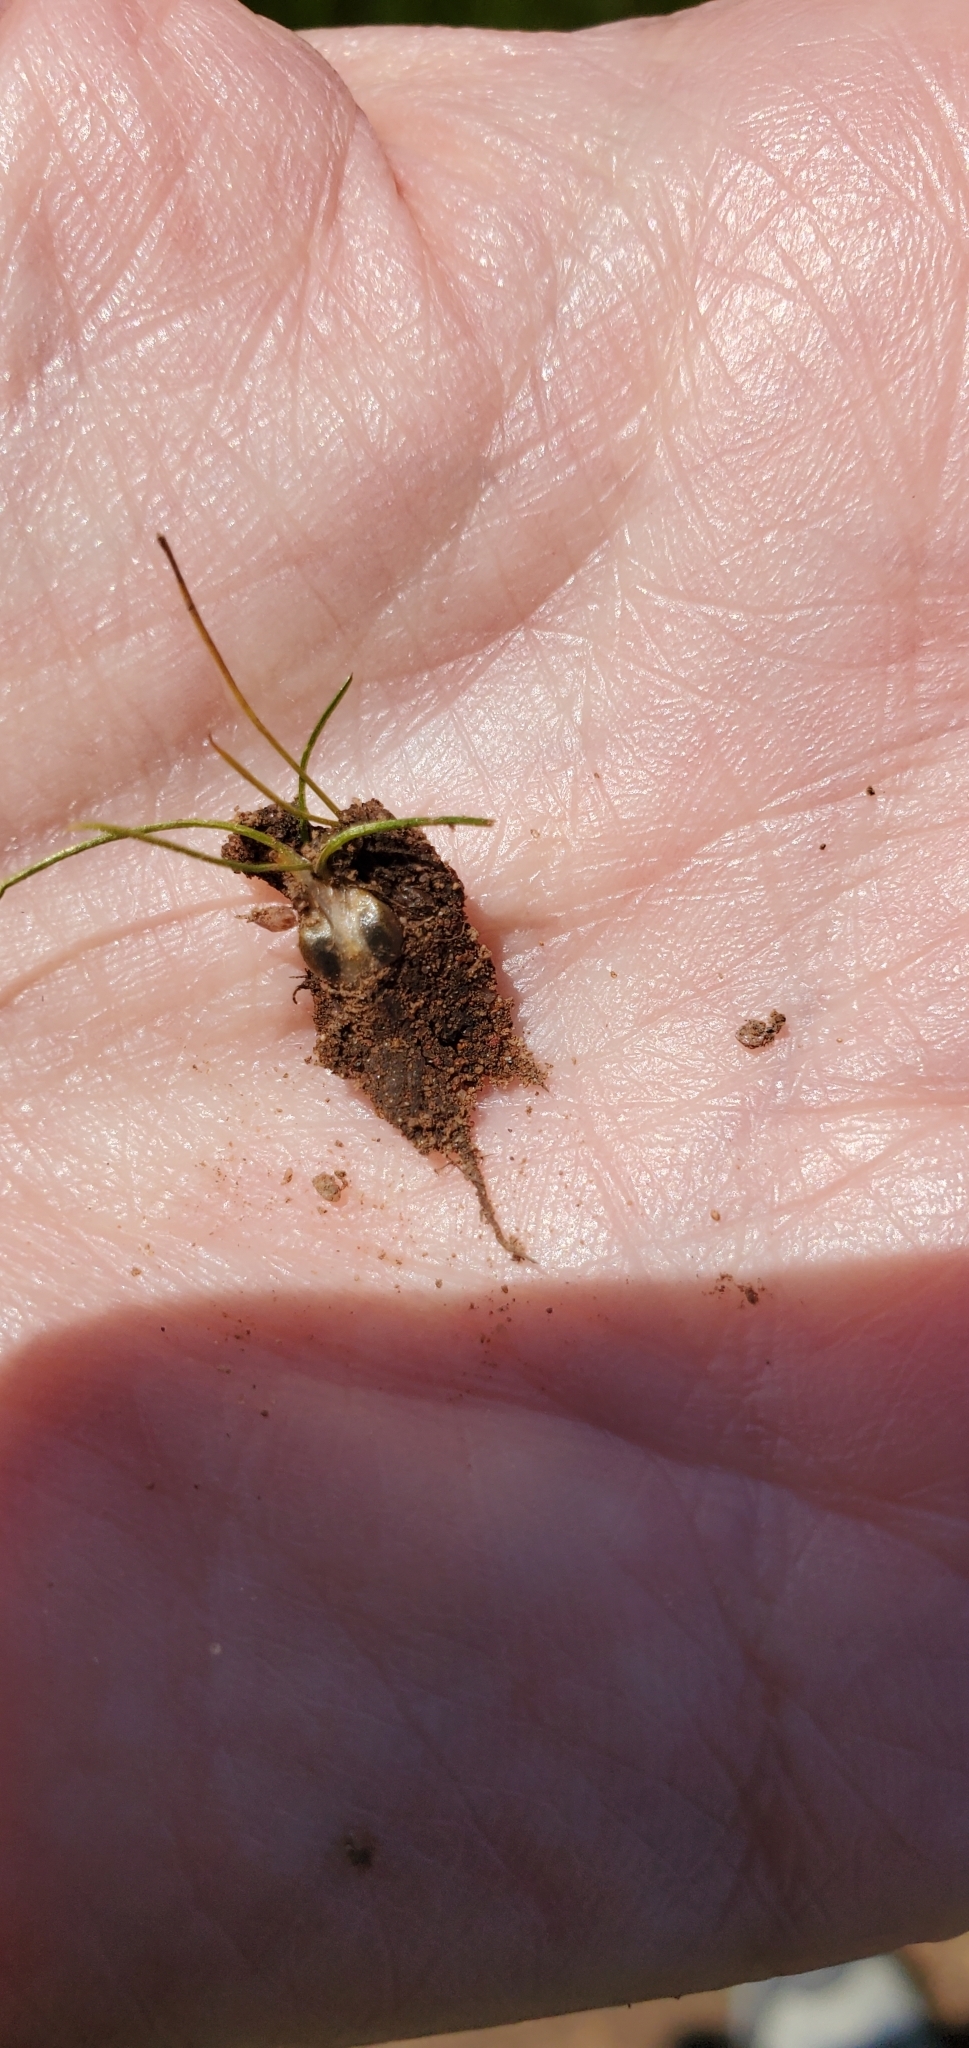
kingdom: Plantae
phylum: Tracheophyta
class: Lycopodiopsida
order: Isoetales
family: Isoetaceae
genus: Isoetes
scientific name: Isoetes orcuttii
